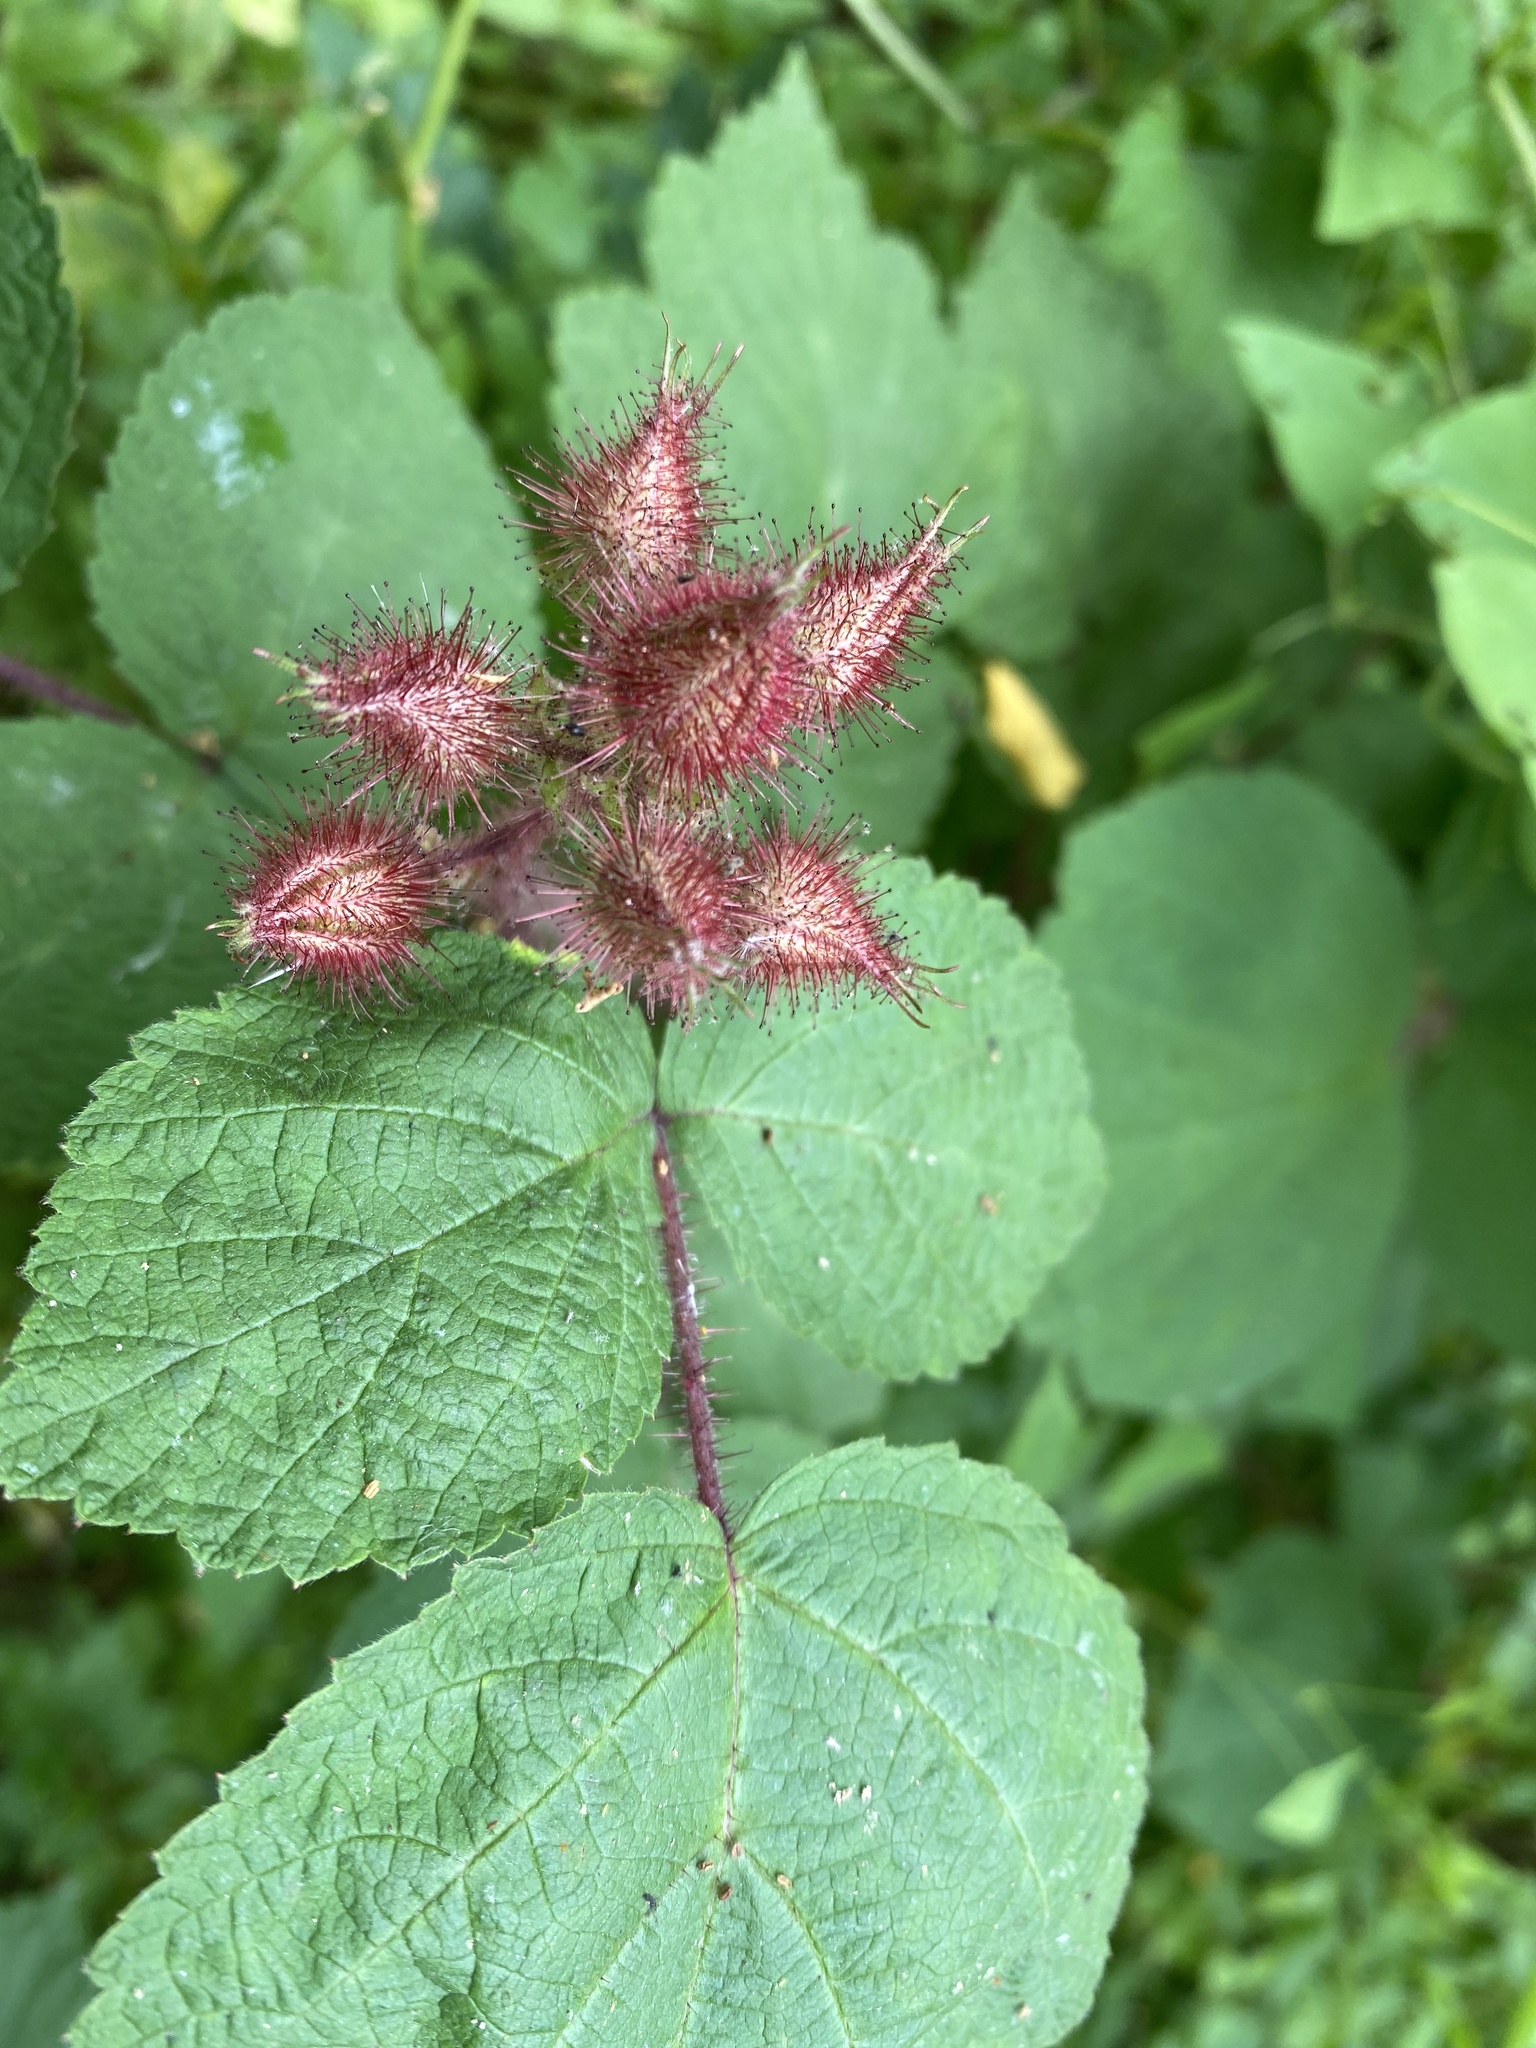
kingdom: Plantae
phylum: Tracheophyta
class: Magnoliopsida
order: Rosales
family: Rosaceae
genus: Rubus
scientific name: Rubus phoenicolasius
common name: Japanese wineberry
